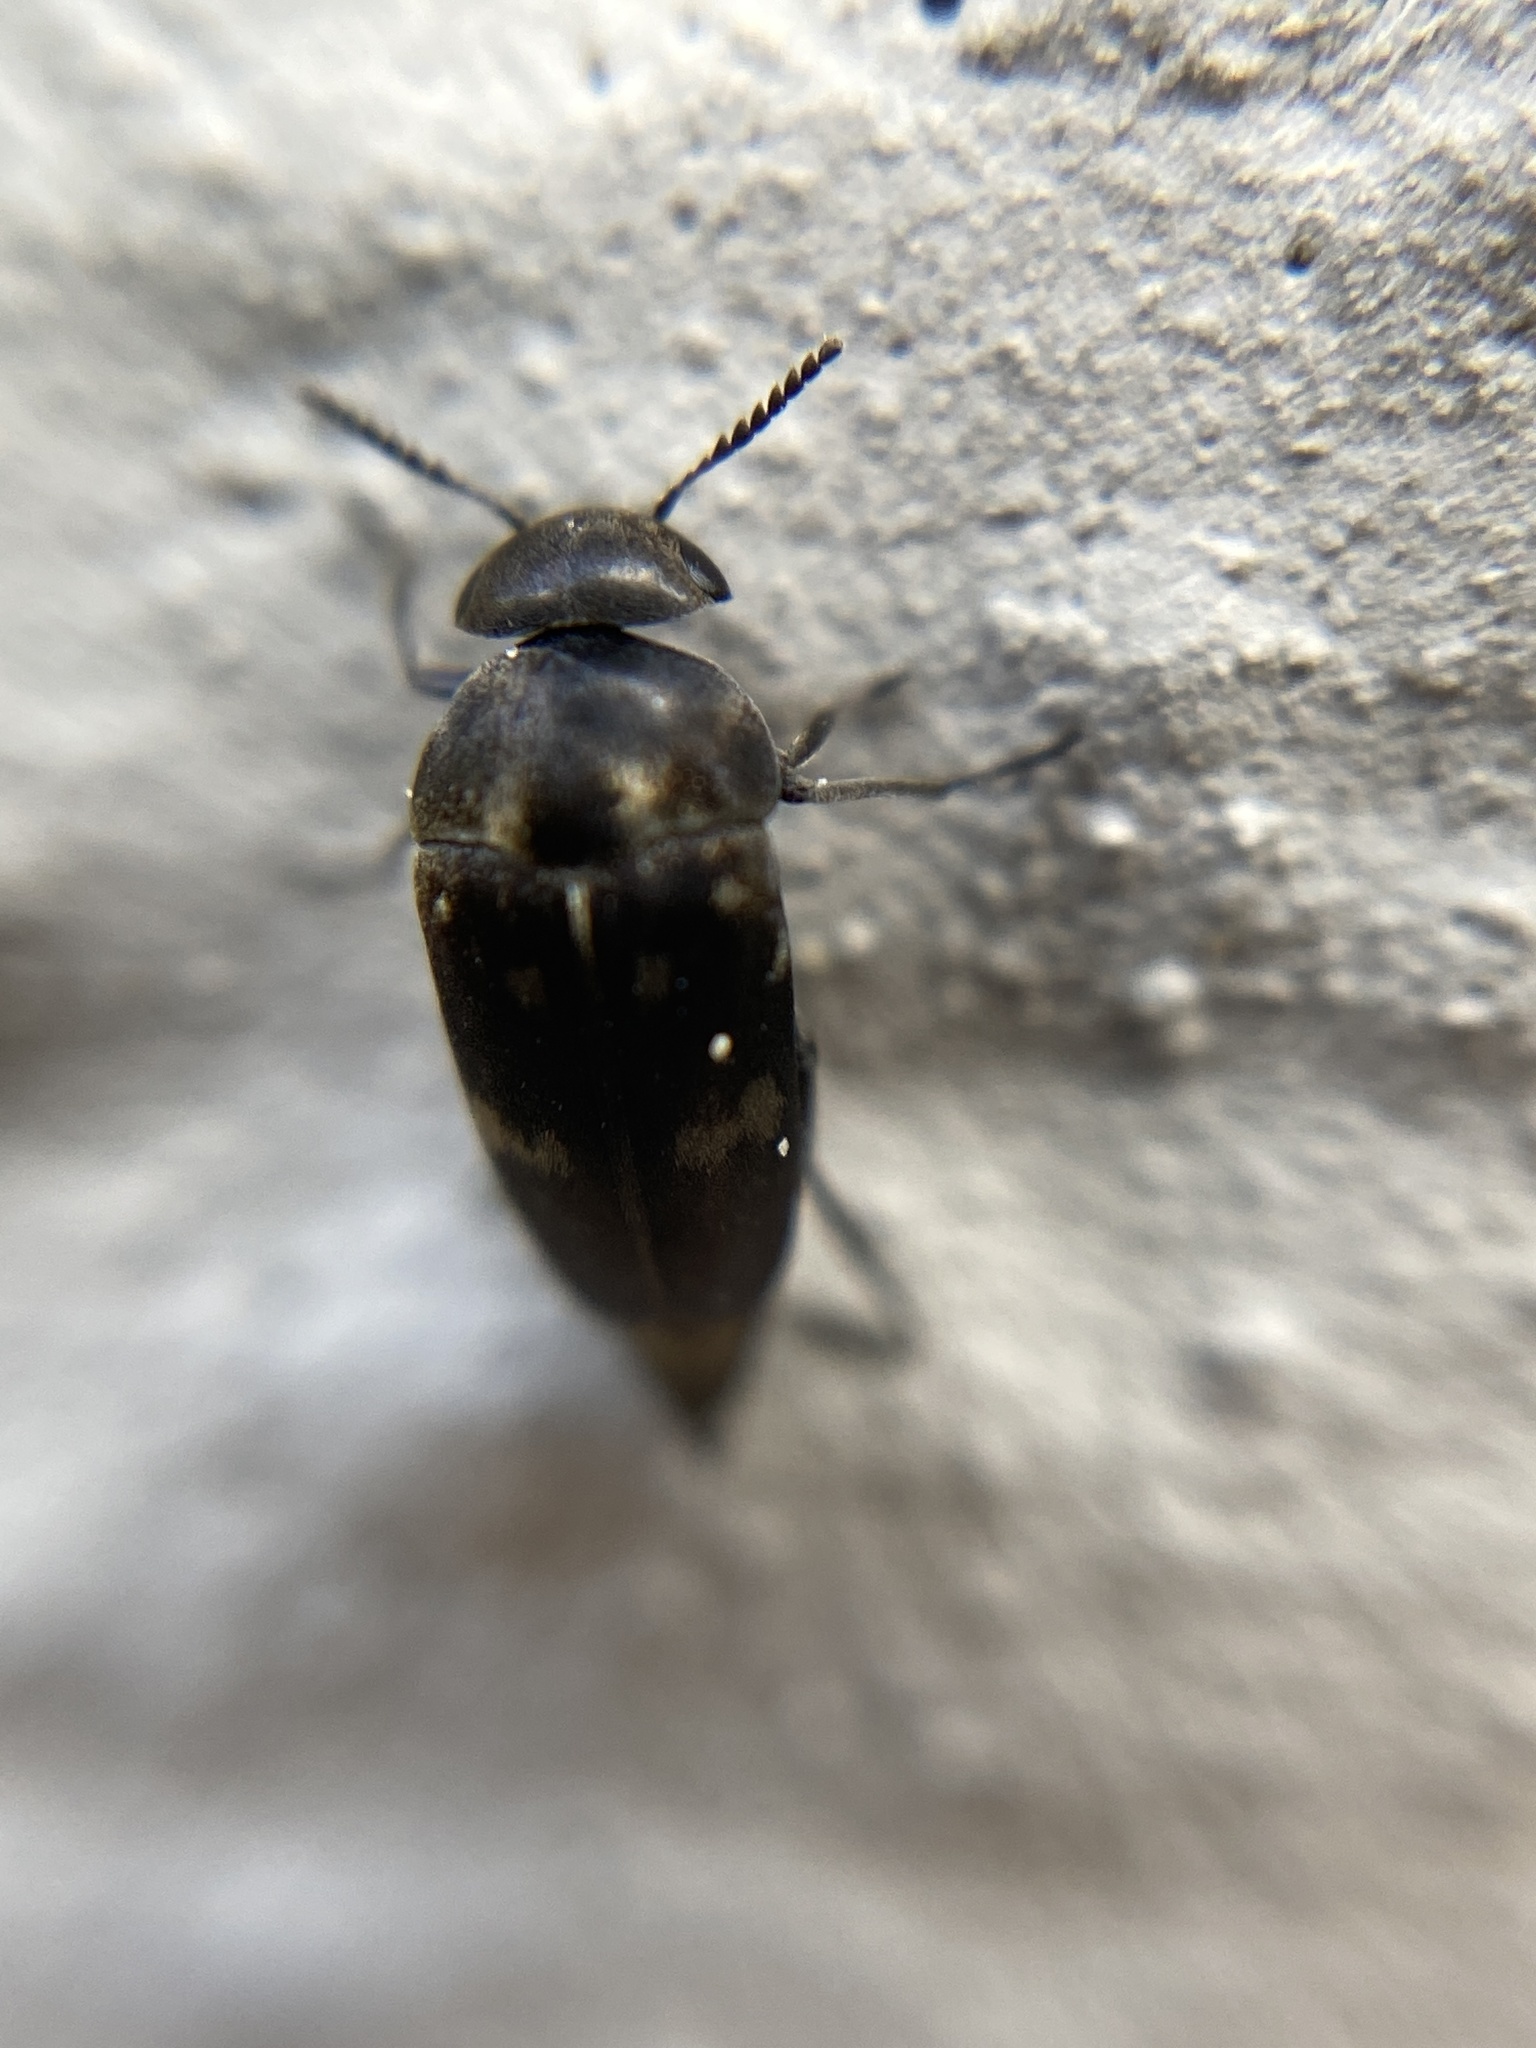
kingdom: Animalia
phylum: Arthropoda
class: Insecta
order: Coleoptera
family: Mordellidae
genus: Curtimorda
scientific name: Curtimorda bisignata
